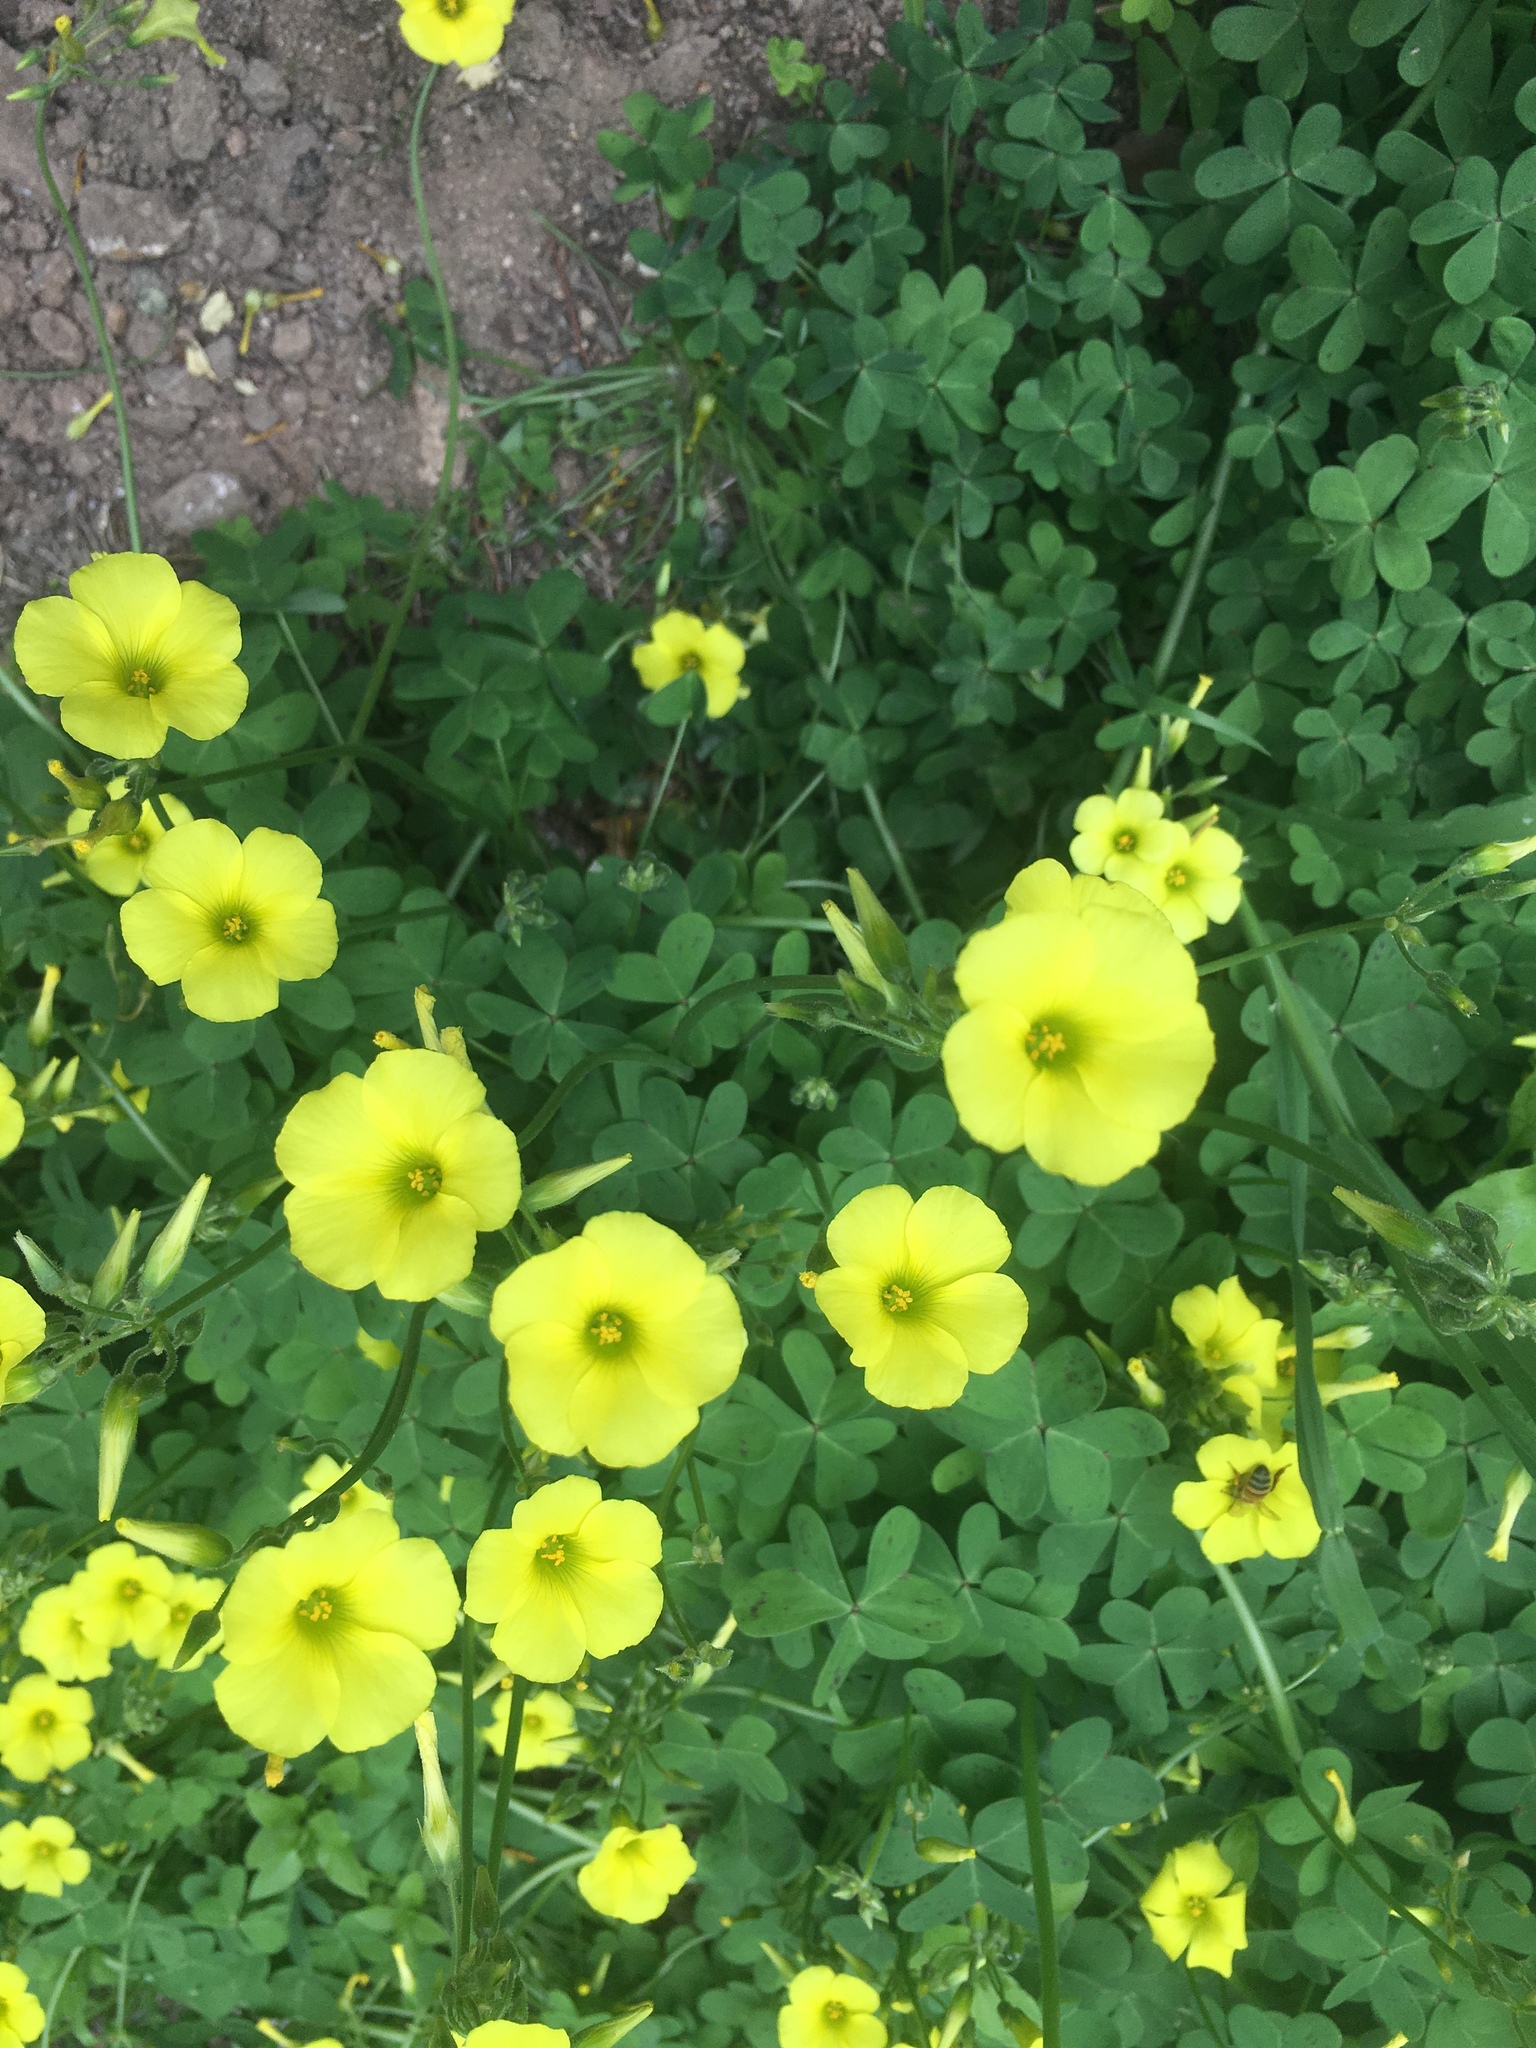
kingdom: Plantae
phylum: Tracheophyta
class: Magnoliopsida
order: Oxalidales
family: Oxalidaceae
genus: Oxalis
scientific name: Oxalis pes-caprae
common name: Bermuda-buttercup
